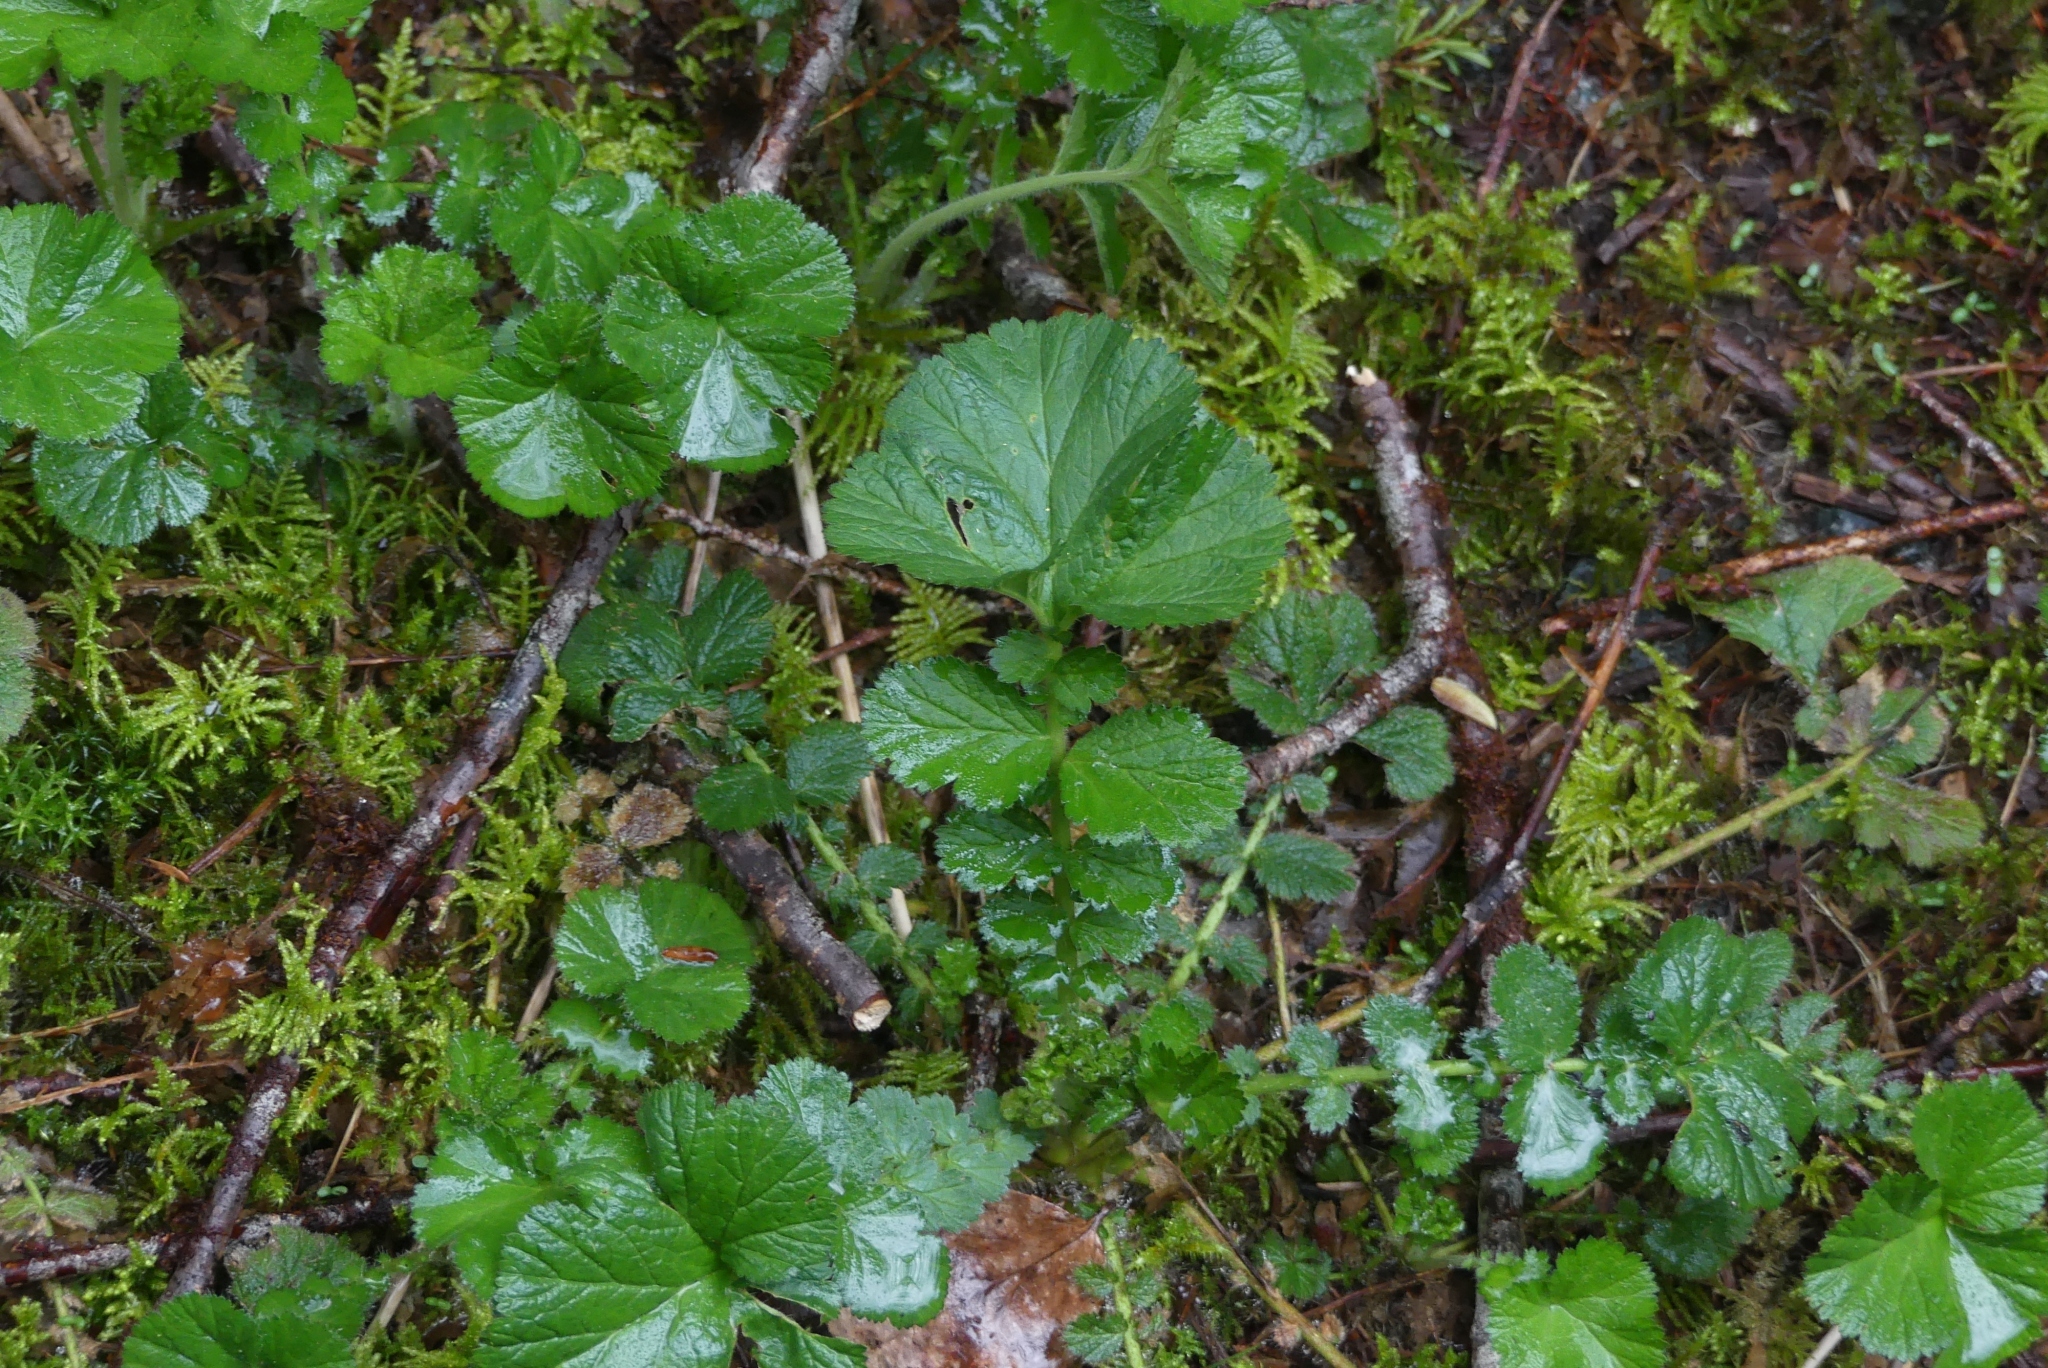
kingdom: Plantae
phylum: Tracheophyta
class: Magnoliopsida
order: Rosales
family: Rosaceae
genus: Geum
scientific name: Geum macrophyllum
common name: Large-leaved avens
